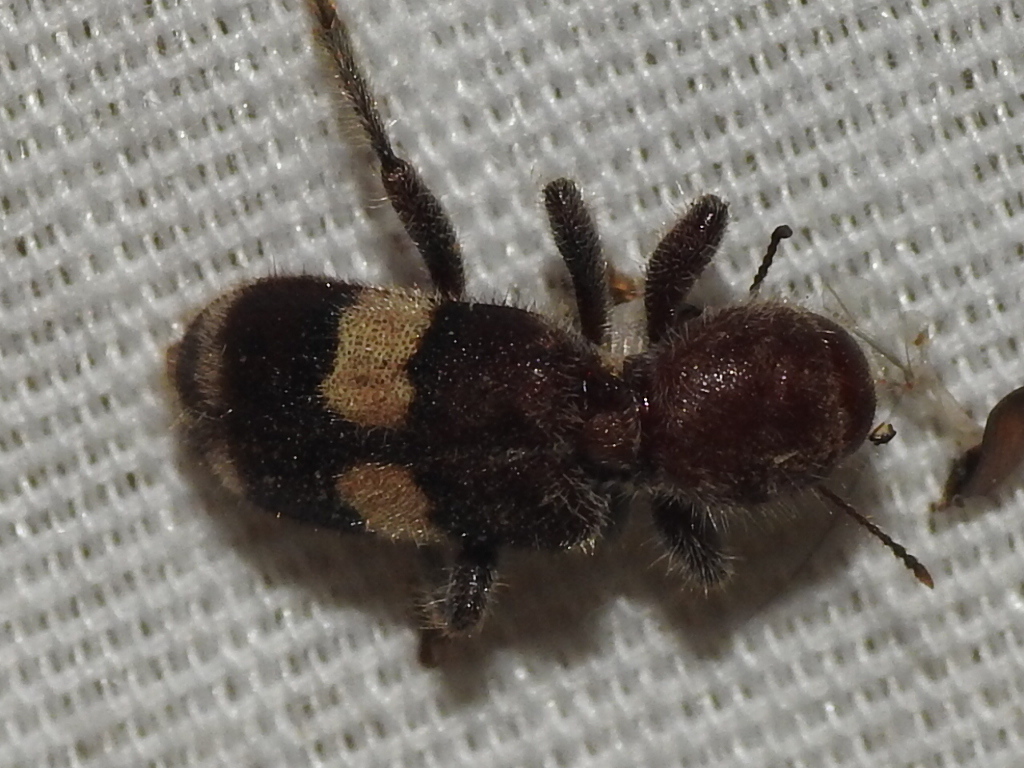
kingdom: Animalia
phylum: Arthropoda
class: Insecta
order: Coleoptera
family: Cleridae
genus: Enoclerus
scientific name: Enoclerus quadrisignatus
